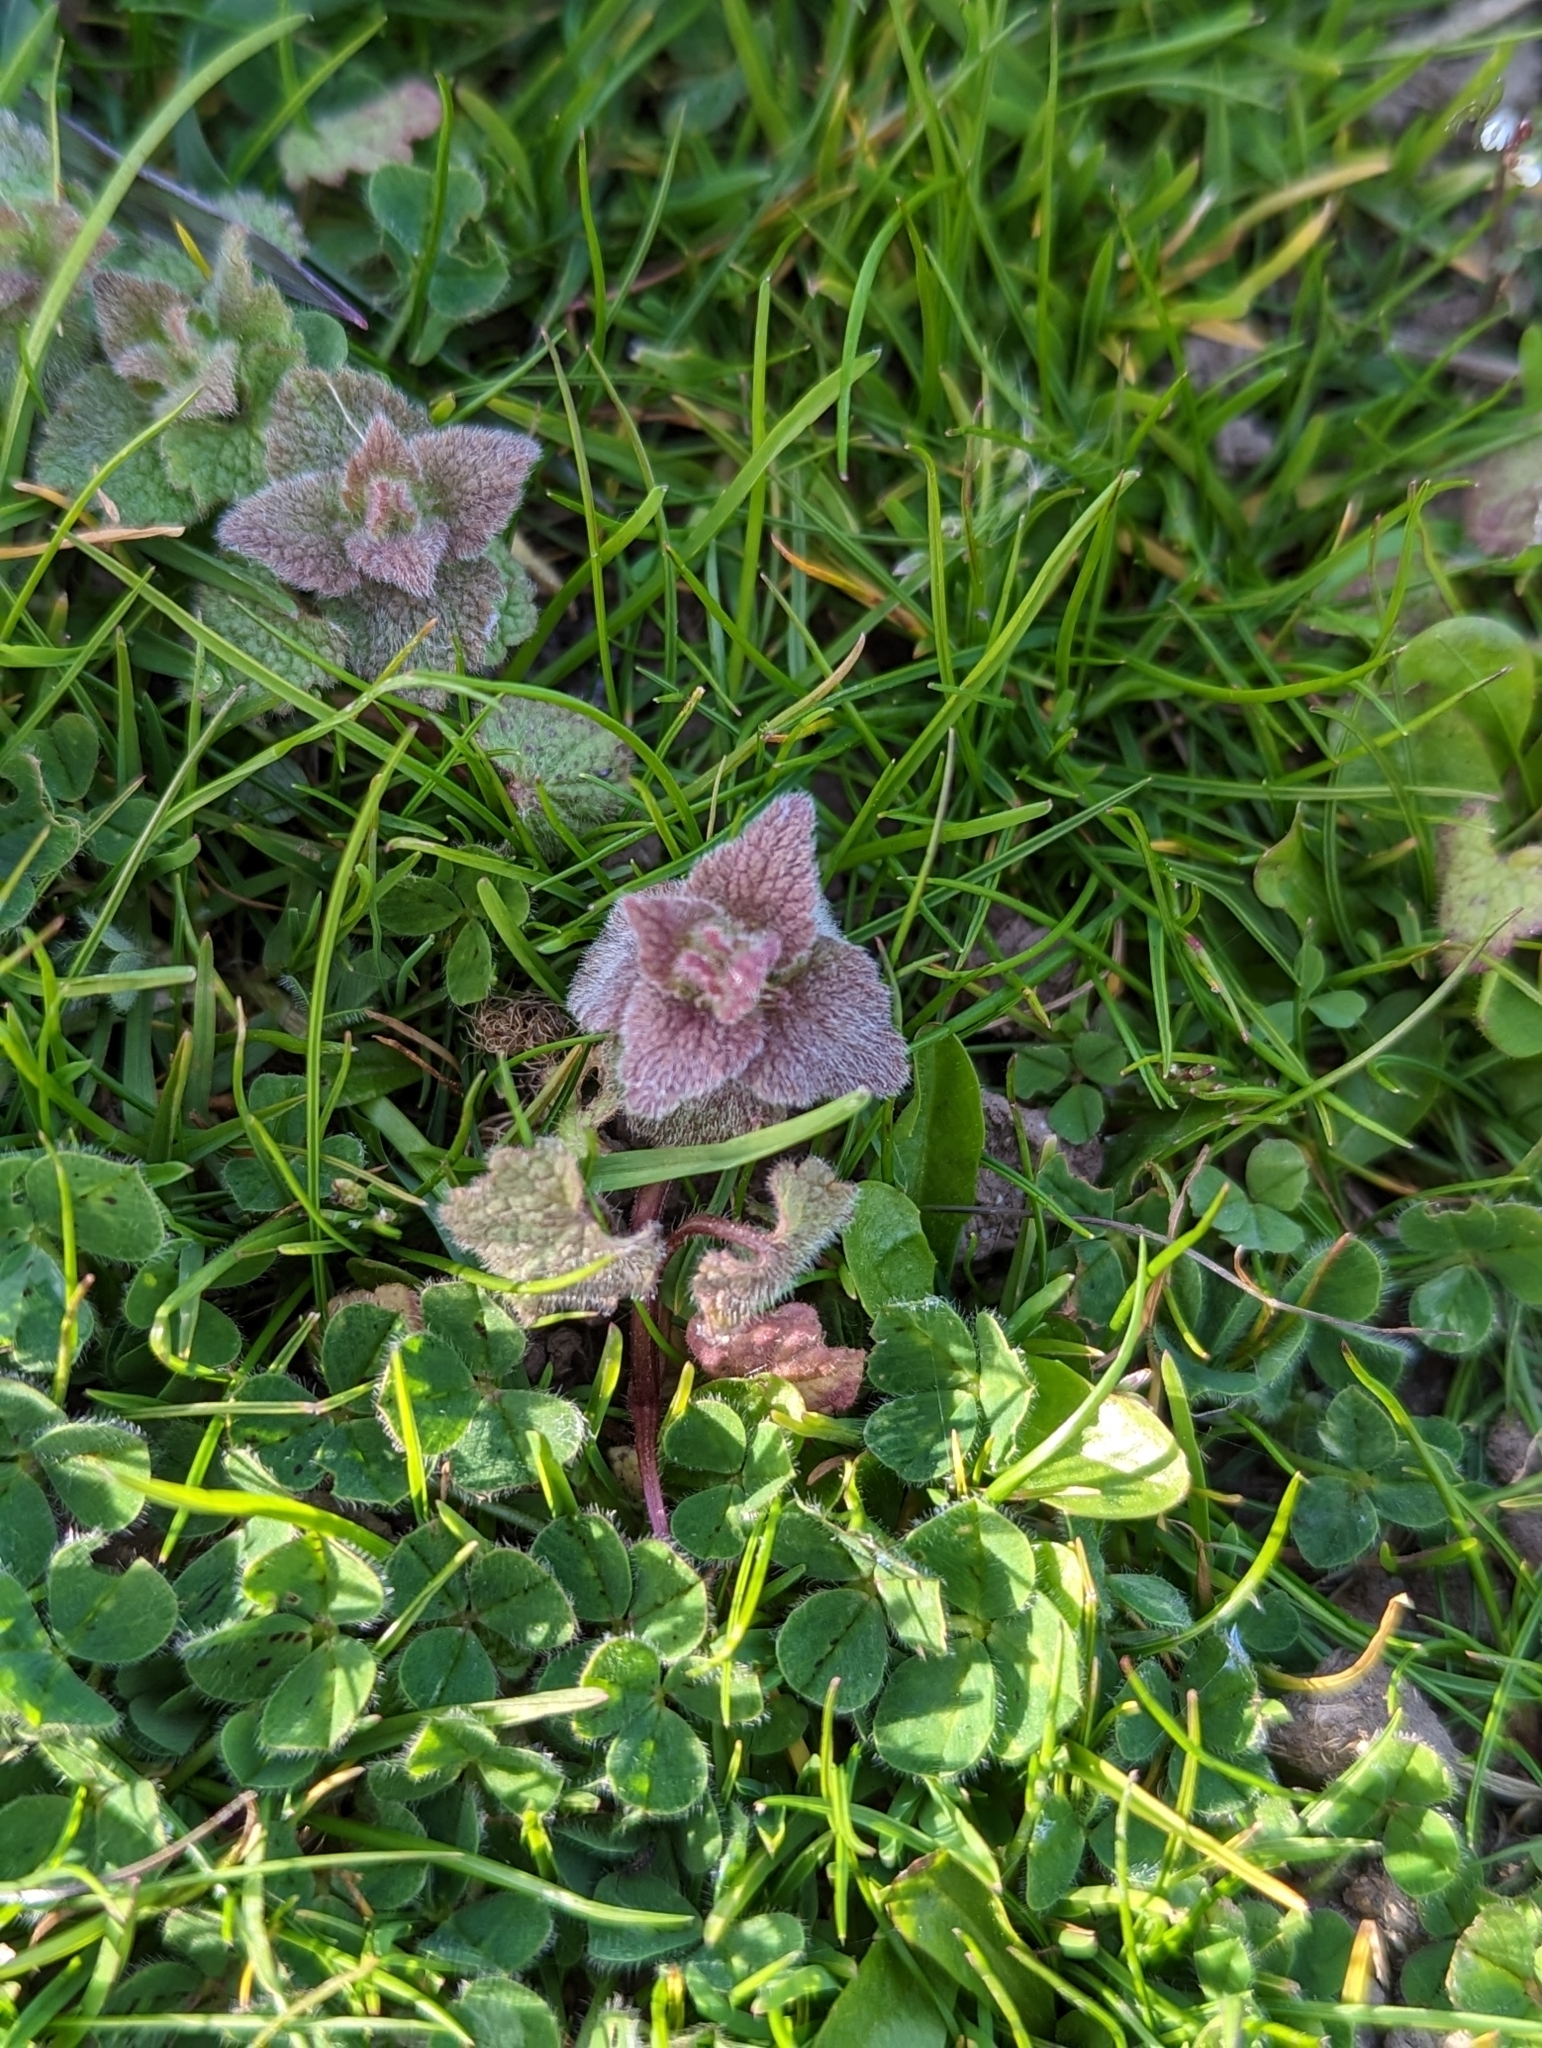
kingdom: Plantae
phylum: Tracheophyta
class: Magnoliopsida
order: Lamiales
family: Lamiaceae
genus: Lamium
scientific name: Lamium purpureum
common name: Red dead-nettle
